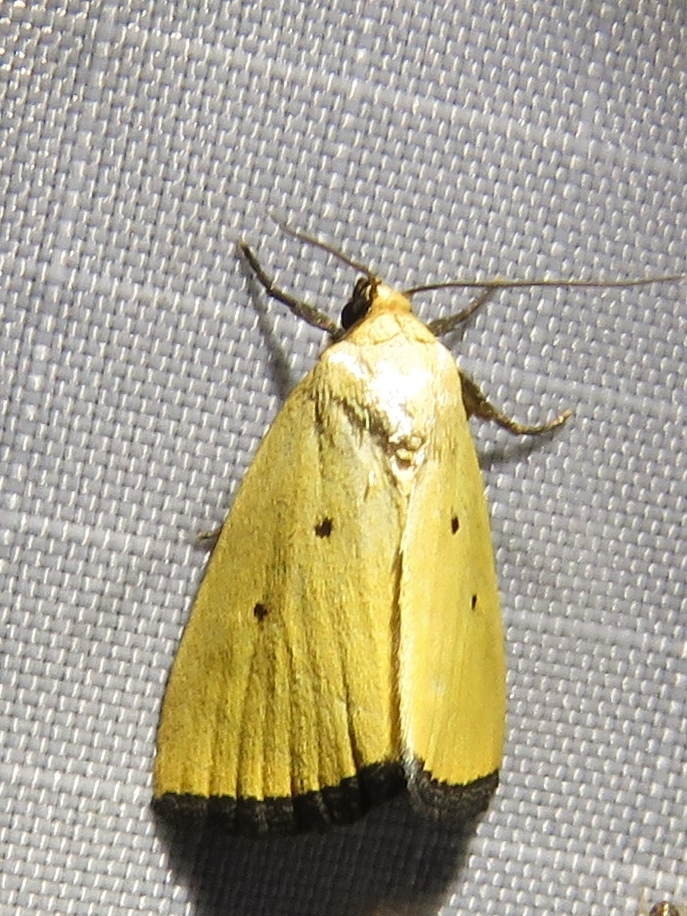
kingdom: Animalia
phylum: Arthropoda
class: Insecta
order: Lepidoptera
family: Noctuidae
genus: Marimatha
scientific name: Marimatha nigrofimbria
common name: Black-bordered lemon moth
